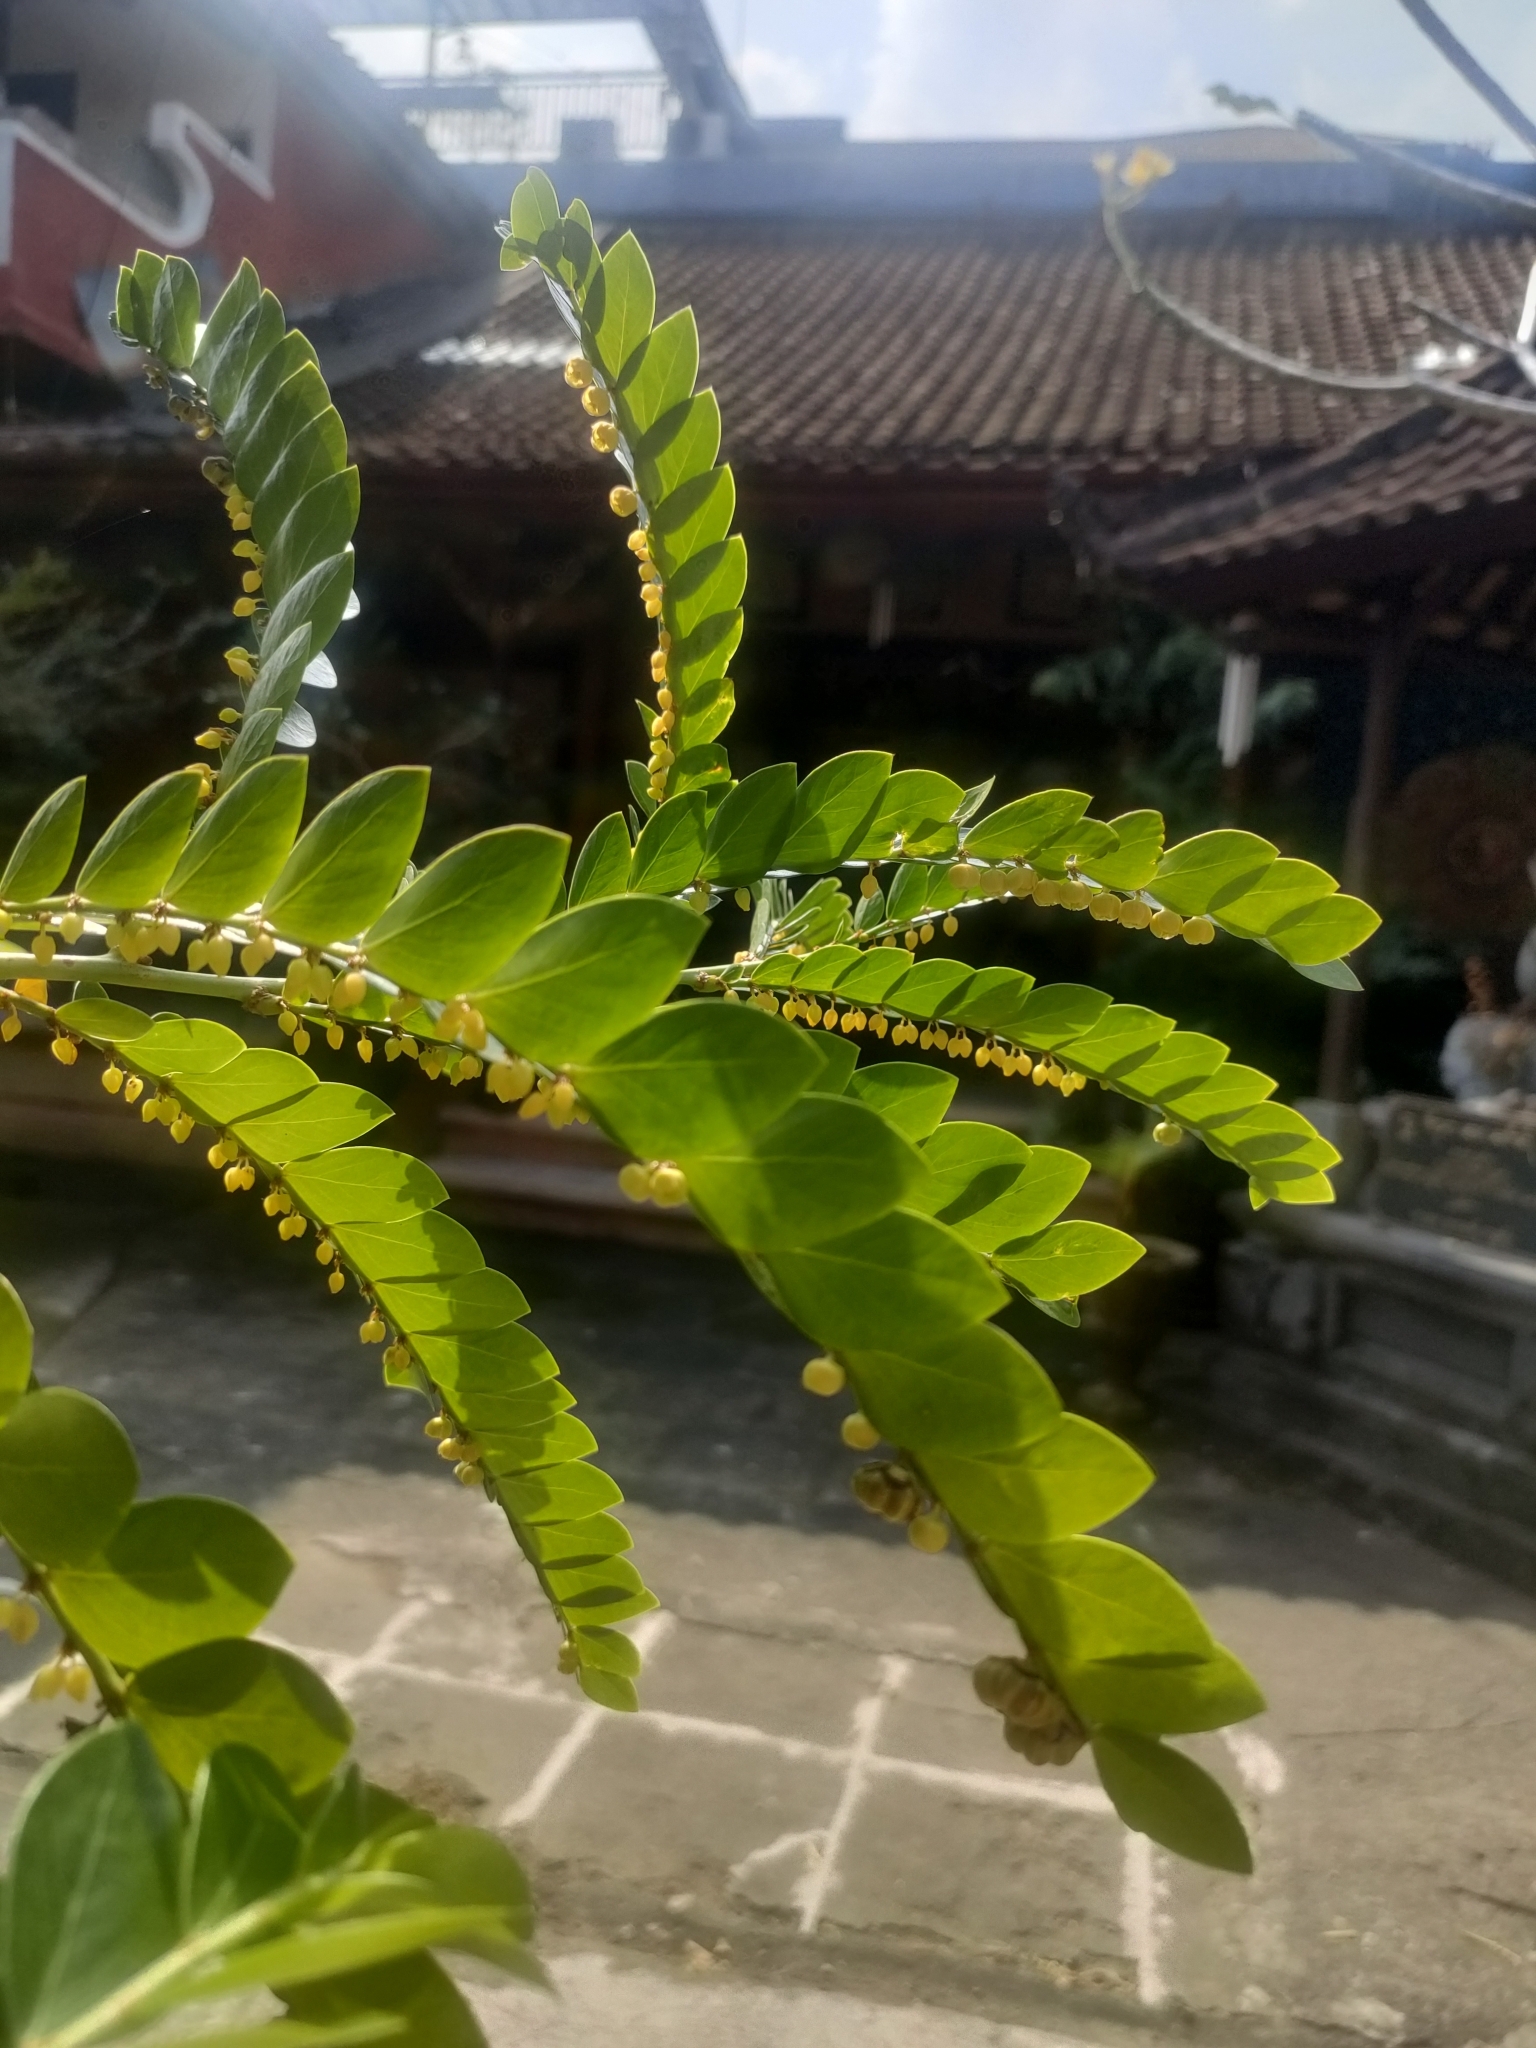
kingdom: Plantae
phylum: Tracheophyta
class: Magnoliopsida
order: Malpighiales
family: Phyllanthaceae
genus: Phyllanthus
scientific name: Phyllanthus buxifolius
